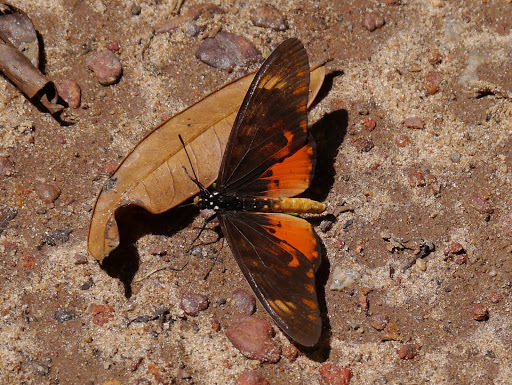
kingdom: Animalia
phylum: Arthropoda
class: Insecta
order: Lepidoptera
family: Nymphalidae
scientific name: Nymphalidae
